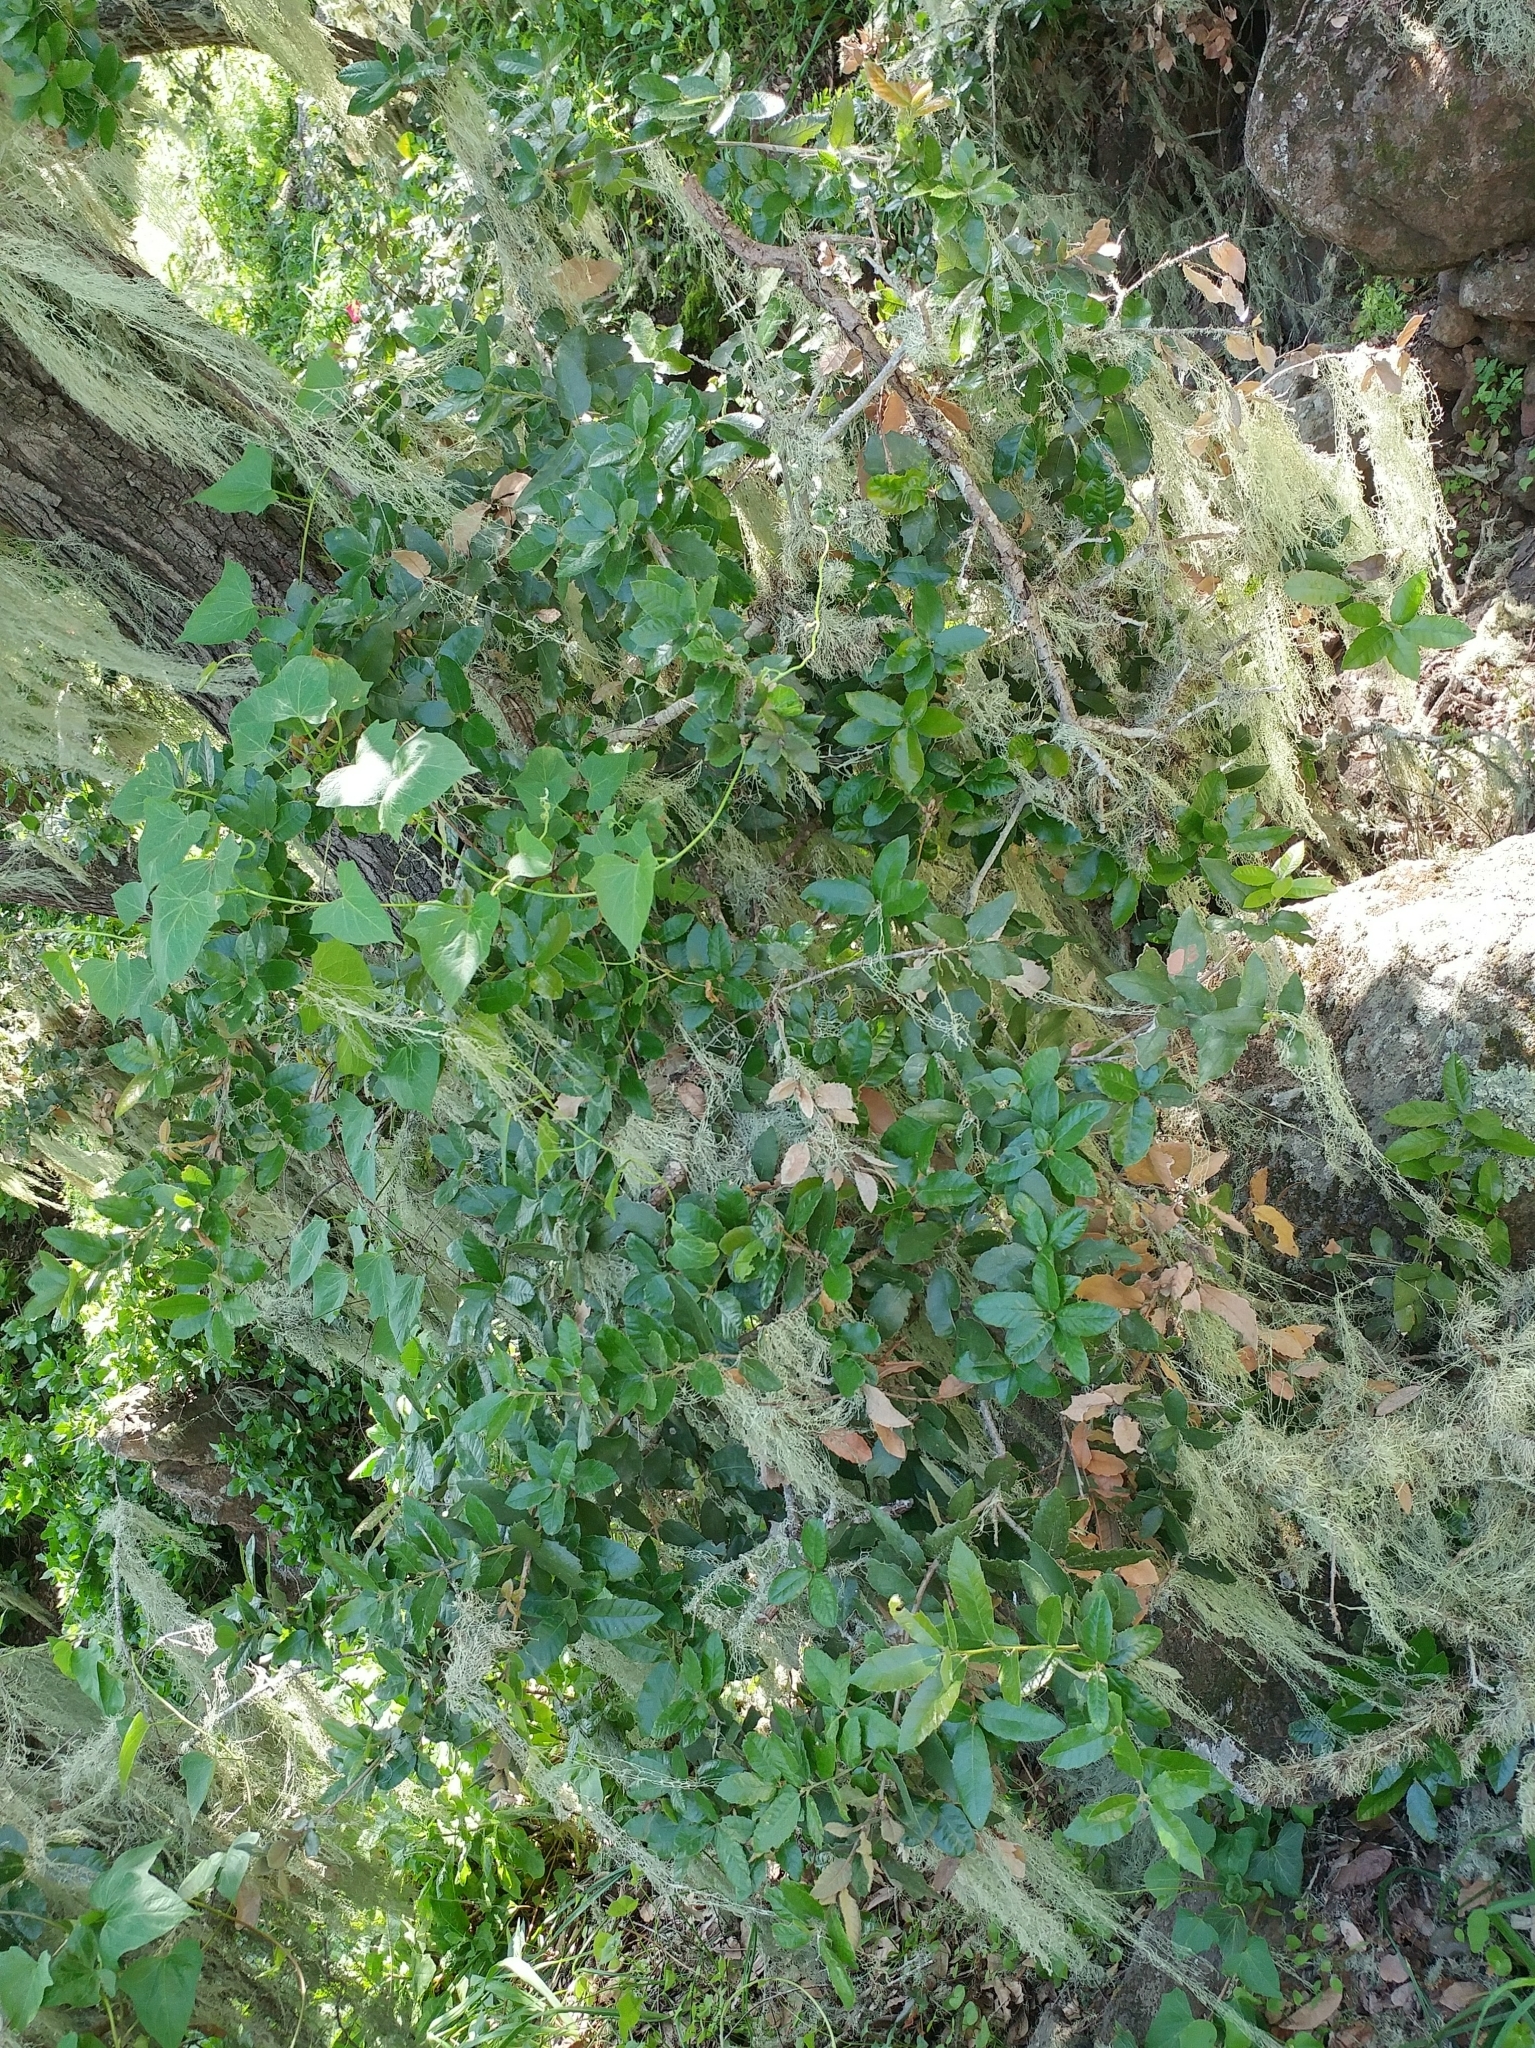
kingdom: Plantae
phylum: Tracheophyta
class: Magnoliopsida
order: Fagales
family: Fagaceae
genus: Quercus
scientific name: Quercus tomentella
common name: Island oak
